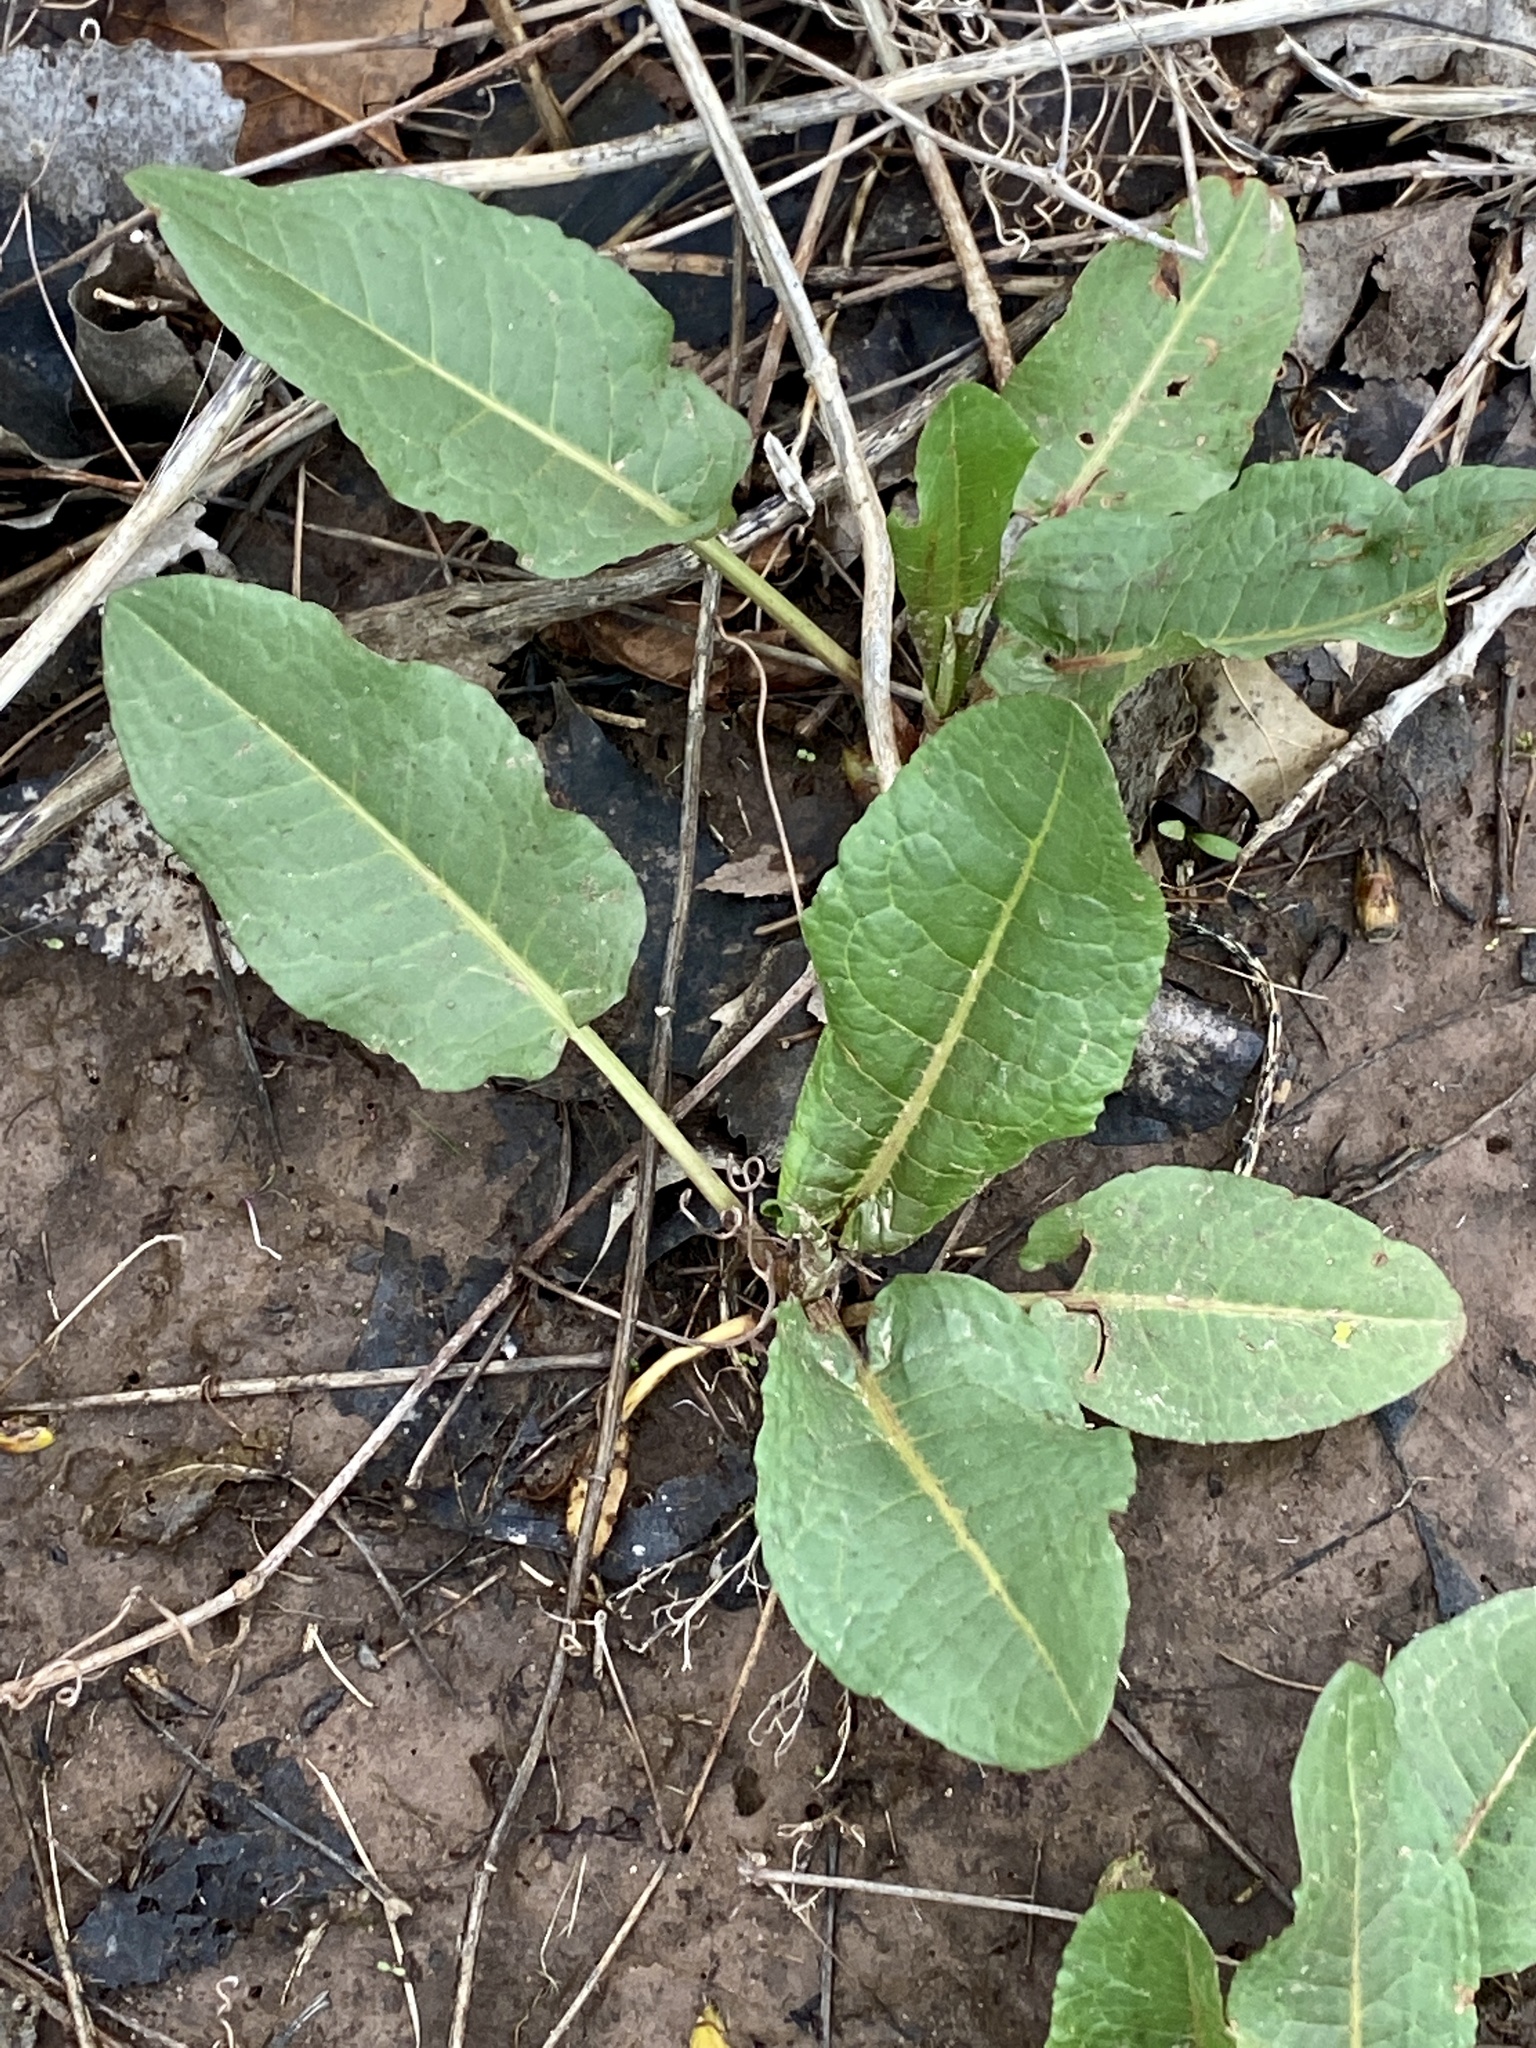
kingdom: Plantae
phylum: Tracheophyta
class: Magnoliopsida
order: Caryophyllales
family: Polygonaceae
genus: Rumex
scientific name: Rumex obtusifolius
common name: Bitter dock
